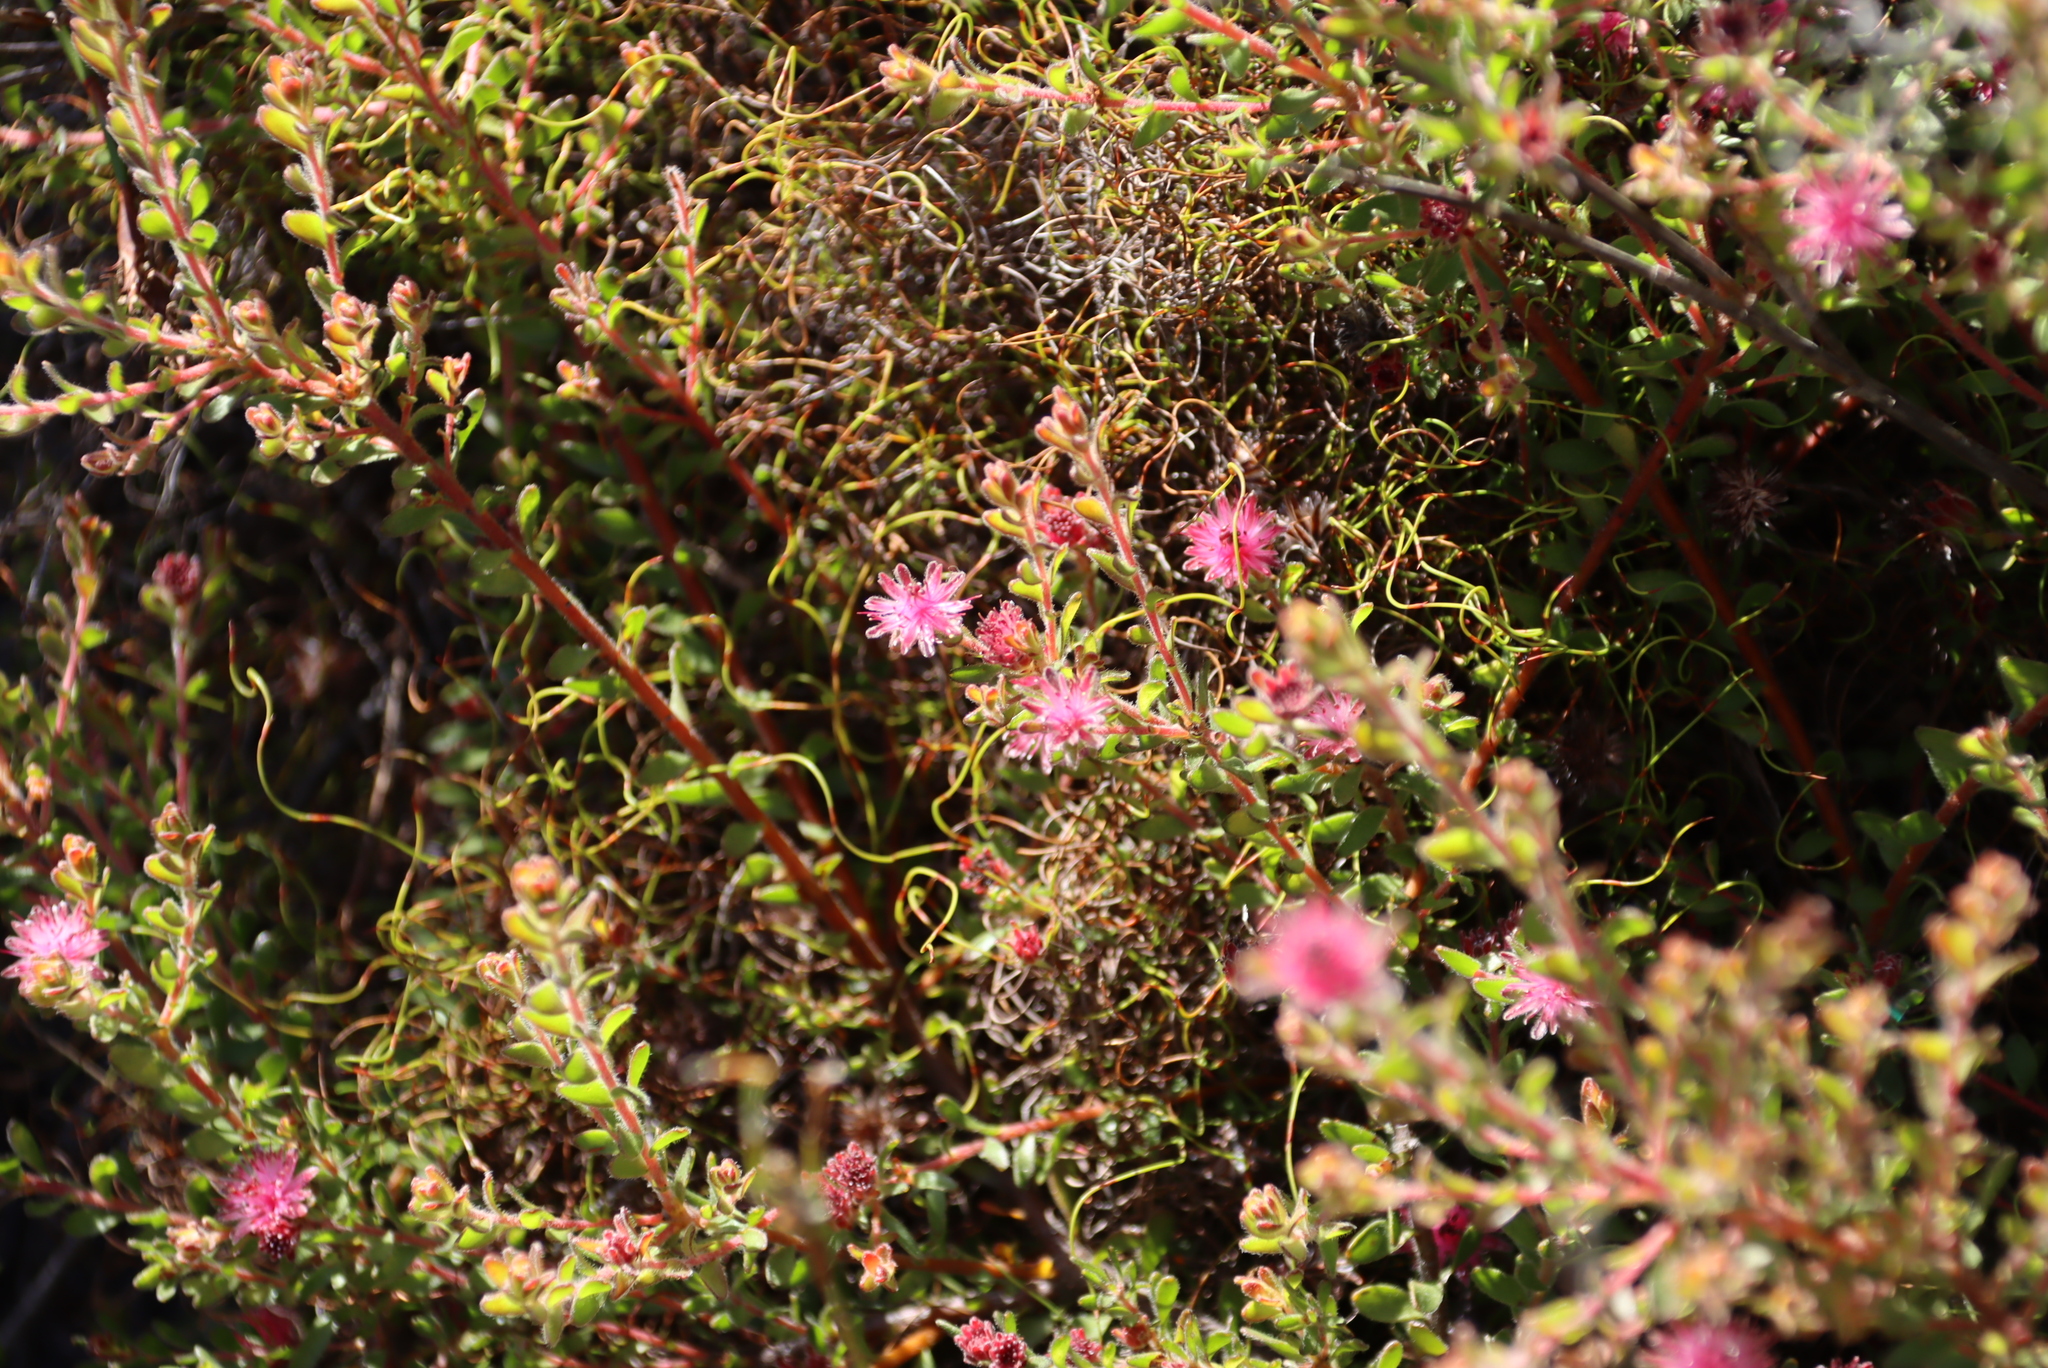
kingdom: Plantae
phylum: Tracheophyta
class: Magnoliopsida
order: Proteales
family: Proteaceae
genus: Diastella
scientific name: Diastella divaricata
